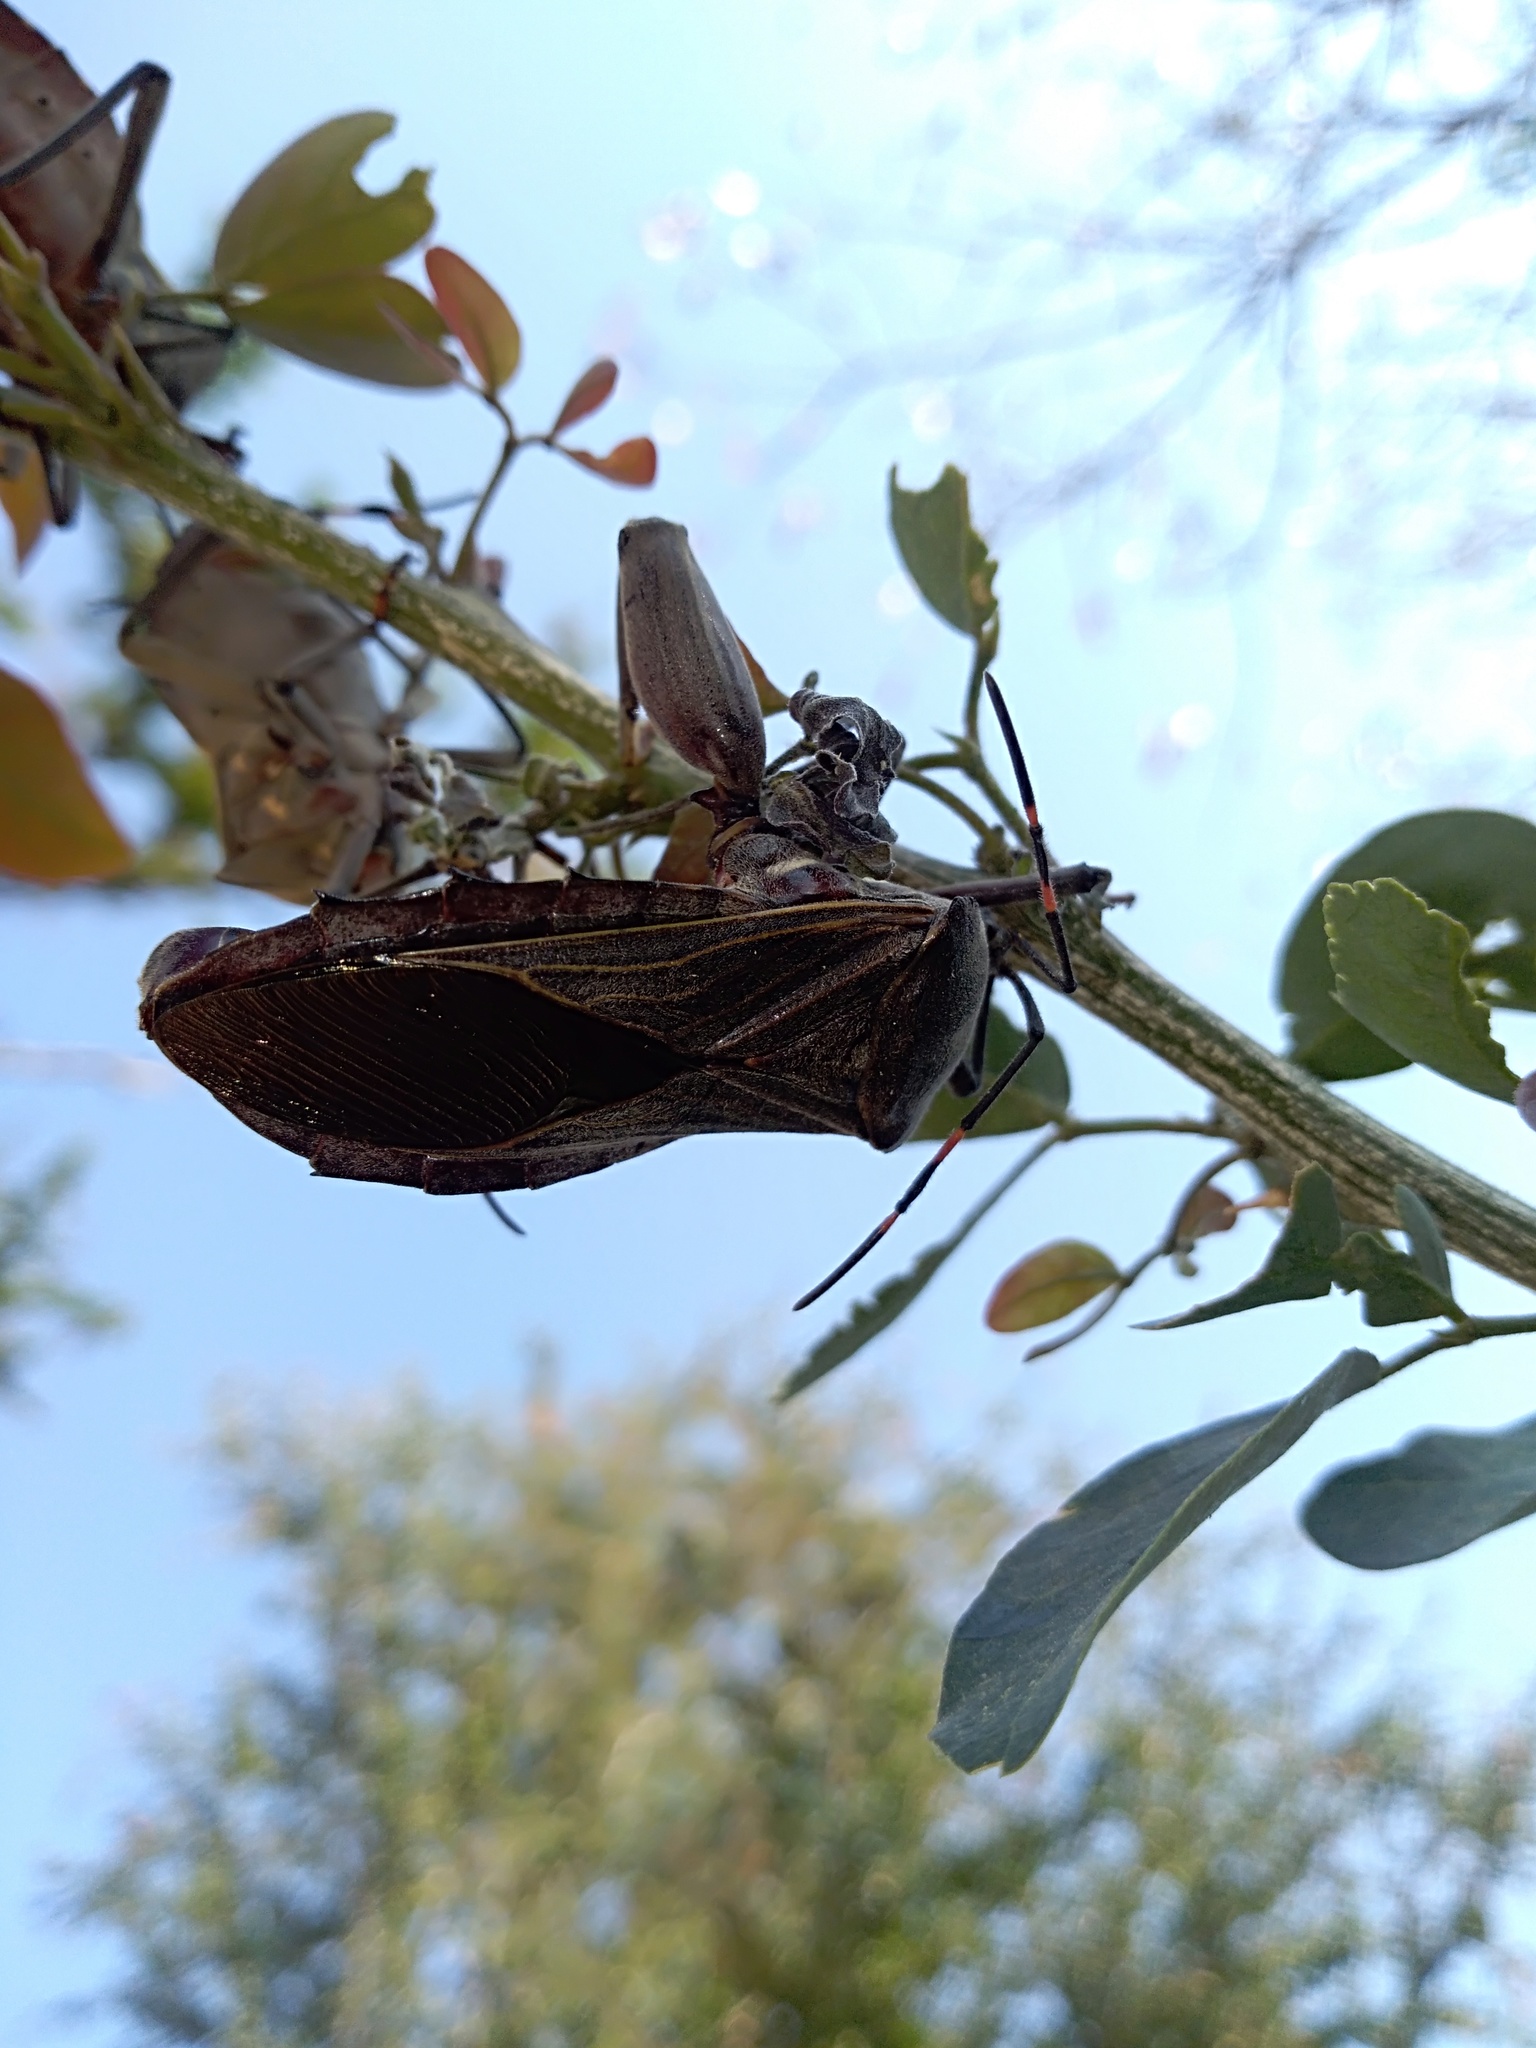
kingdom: Animalia
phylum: Arthropoda
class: Insecta
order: Hemiptera
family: Coreidae
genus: Pachylis
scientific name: Pachylis nervosus
